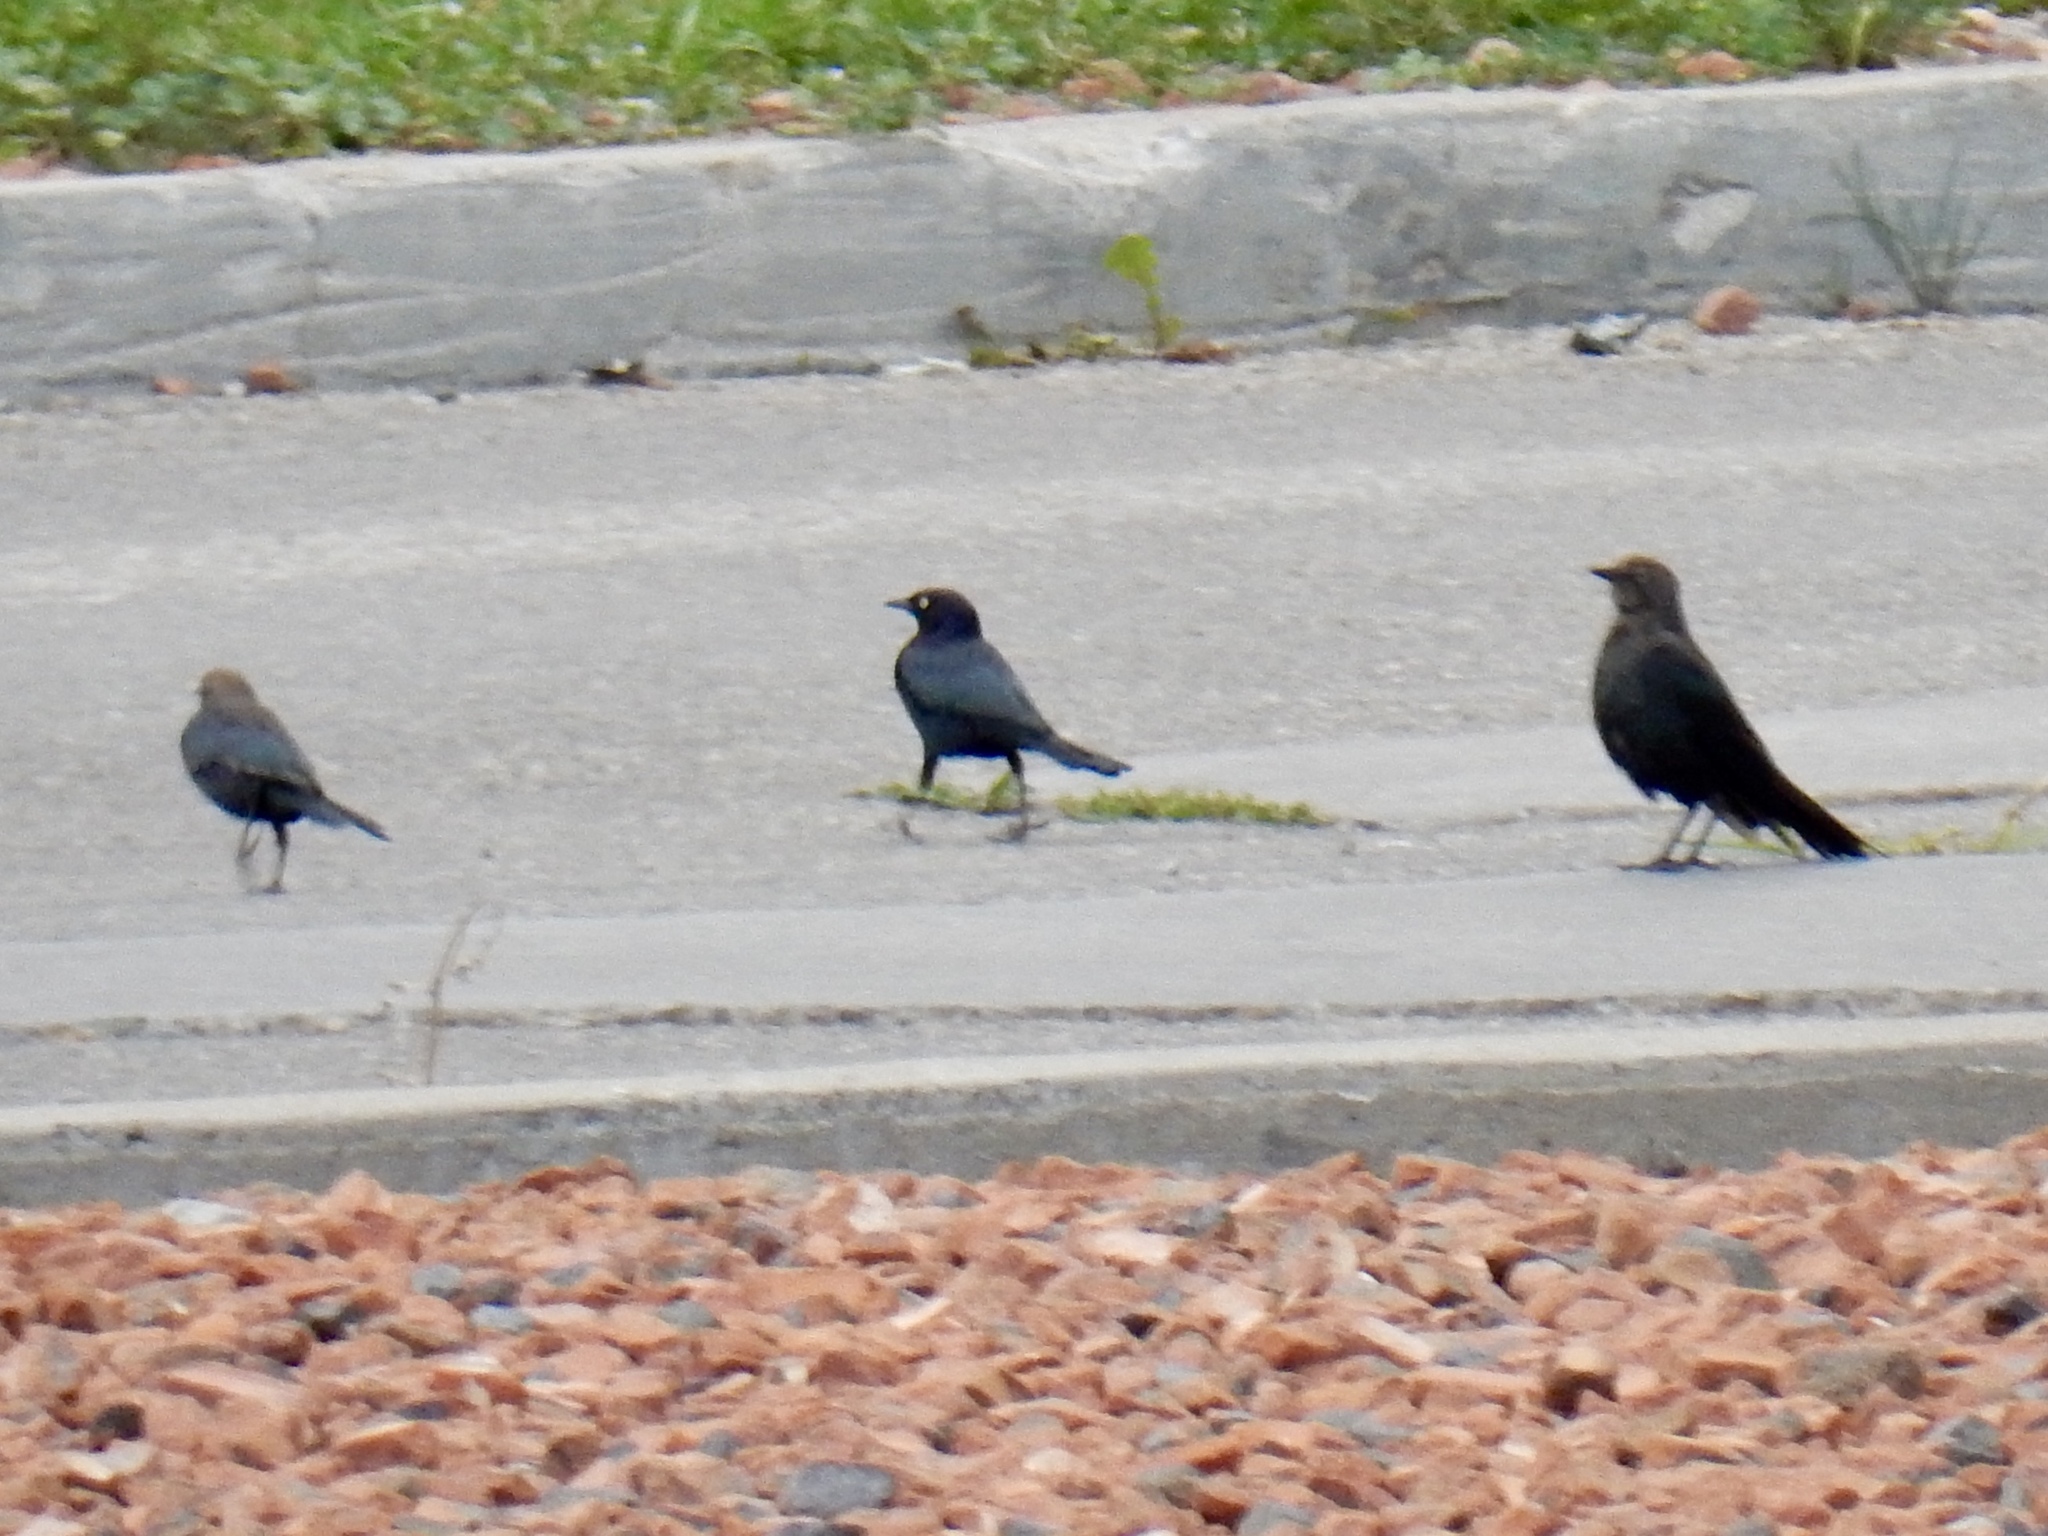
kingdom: Animalia
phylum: Chordata
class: Aves
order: Passeriformes
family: Icteridae
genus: Euphagus
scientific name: Euphagus cyanocephalus
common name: Brewer's blackbird
